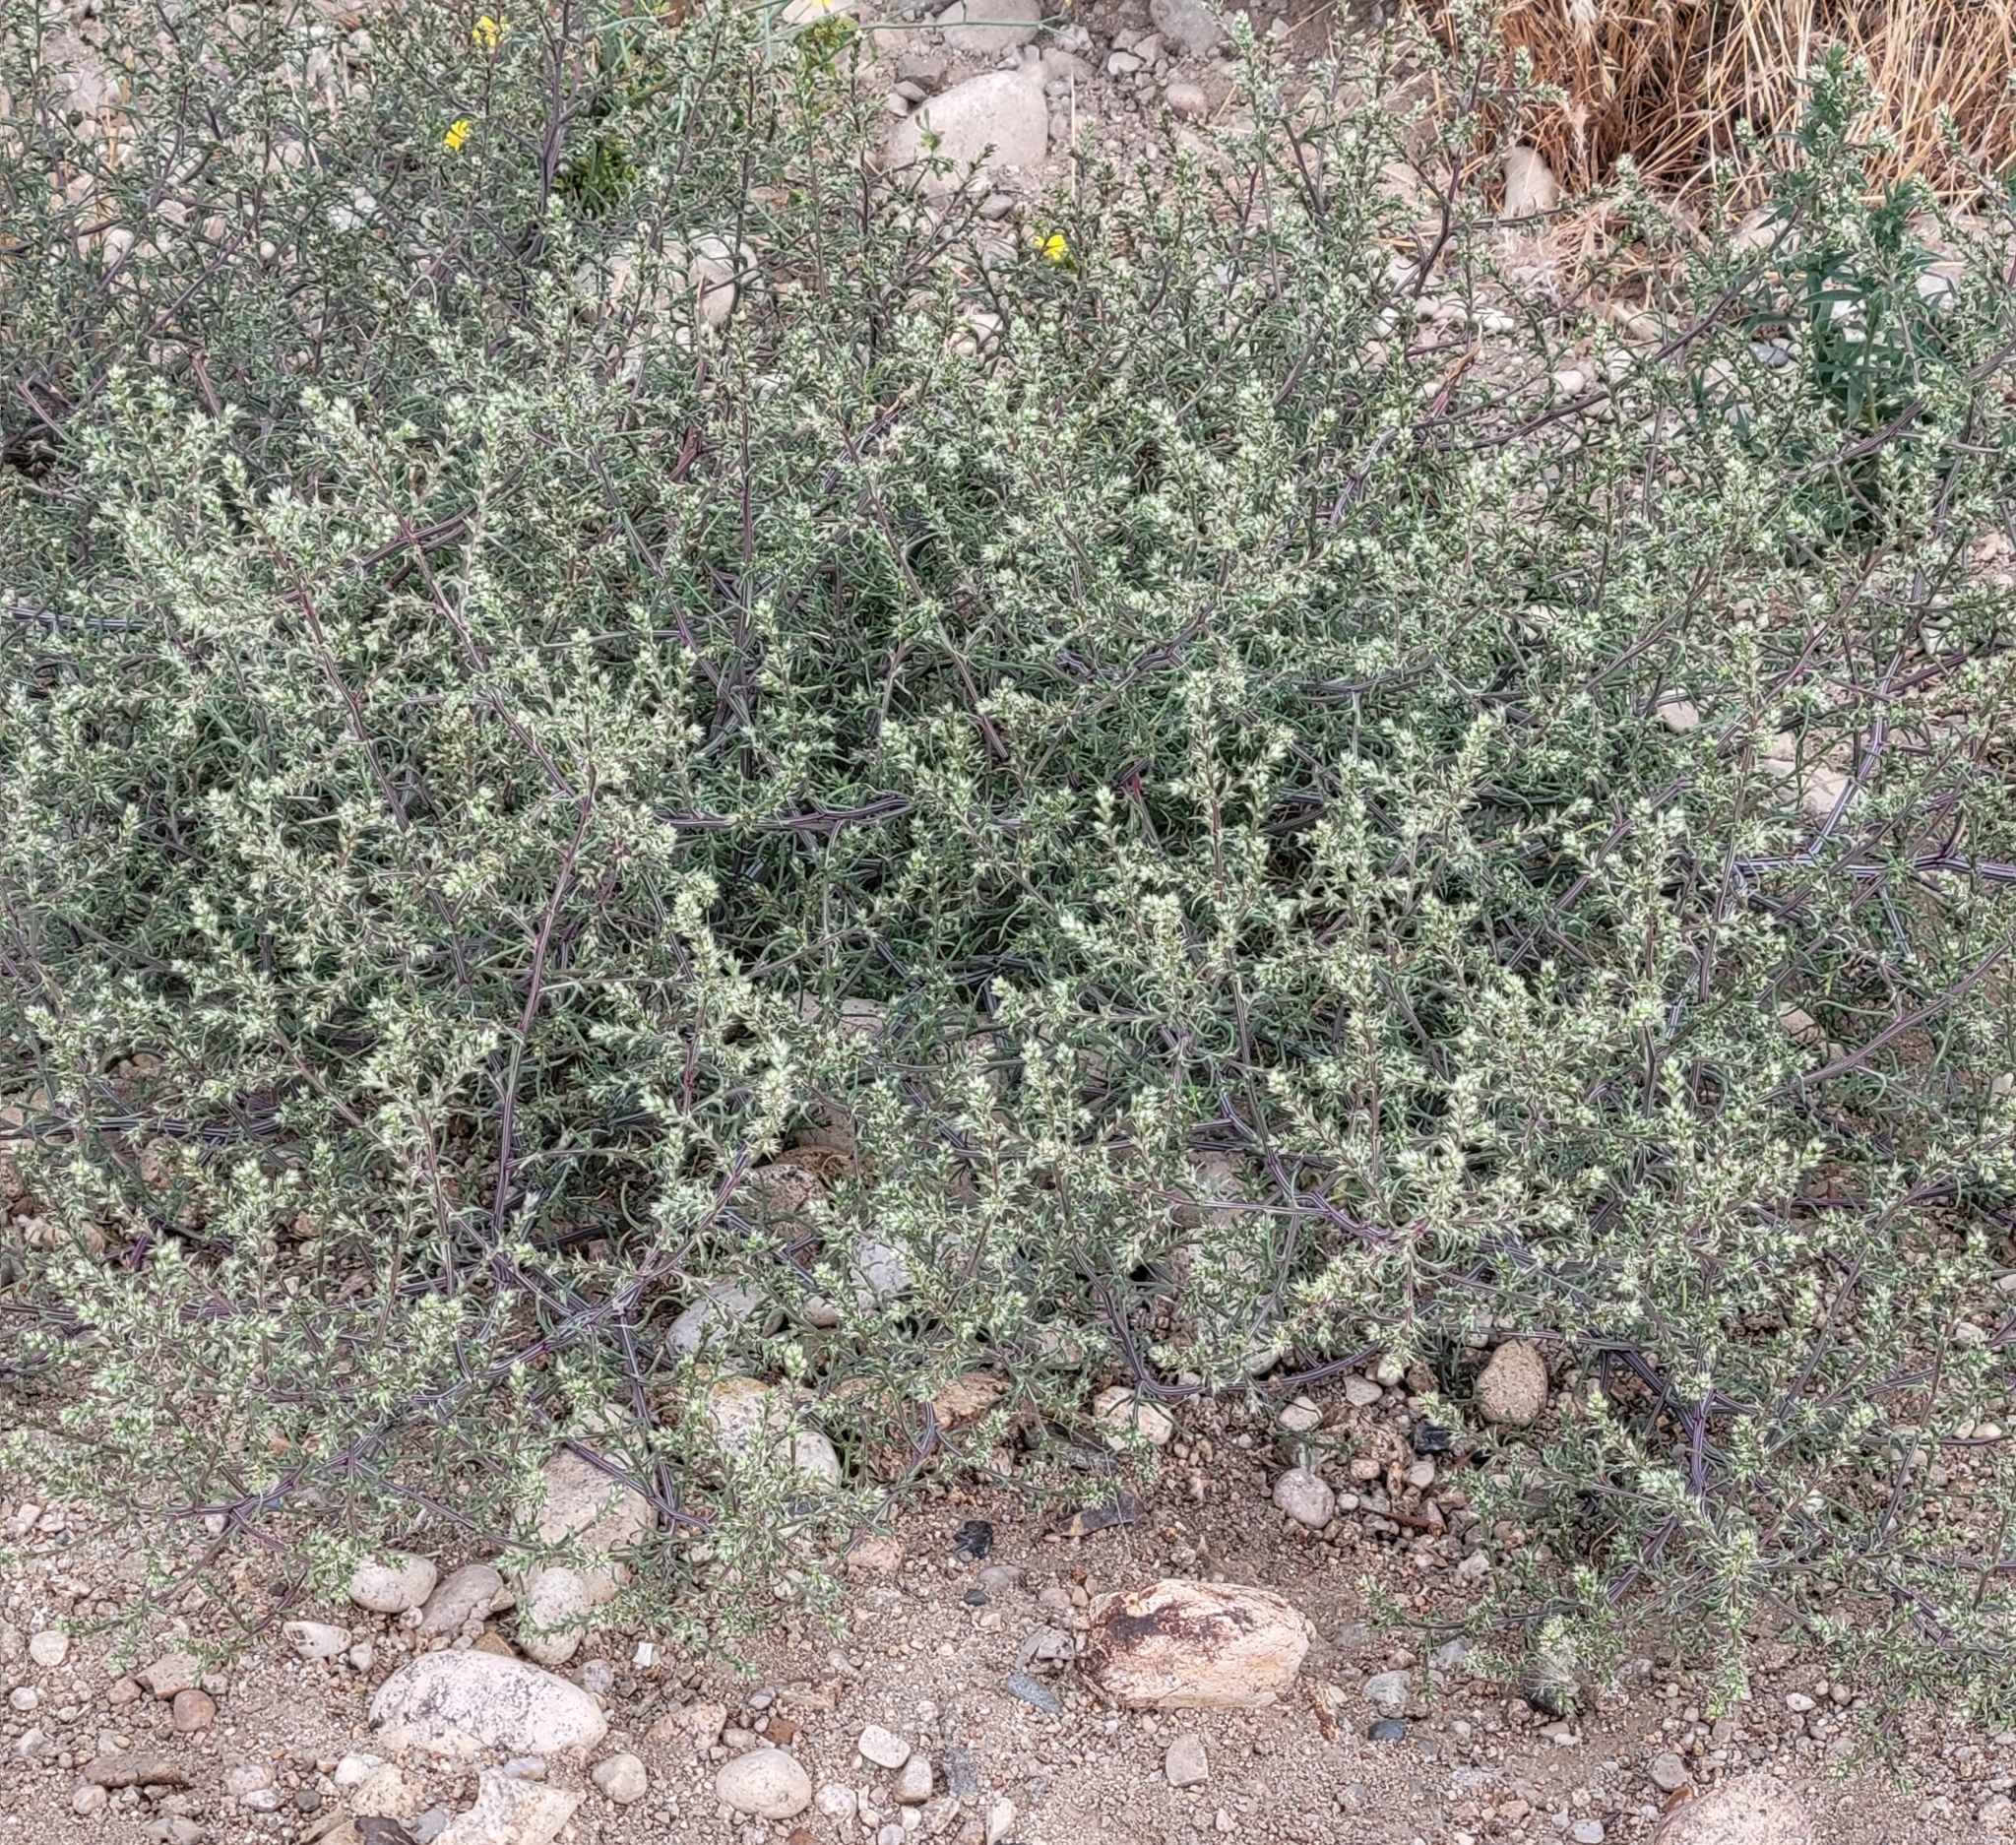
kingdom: Plantae
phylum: Tracheophyta
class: Magnoliopsida
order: Caryophyllales
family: Amaranthaceae
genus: Salsola
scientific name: Salsola tragus
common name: Prickly russian thistle
